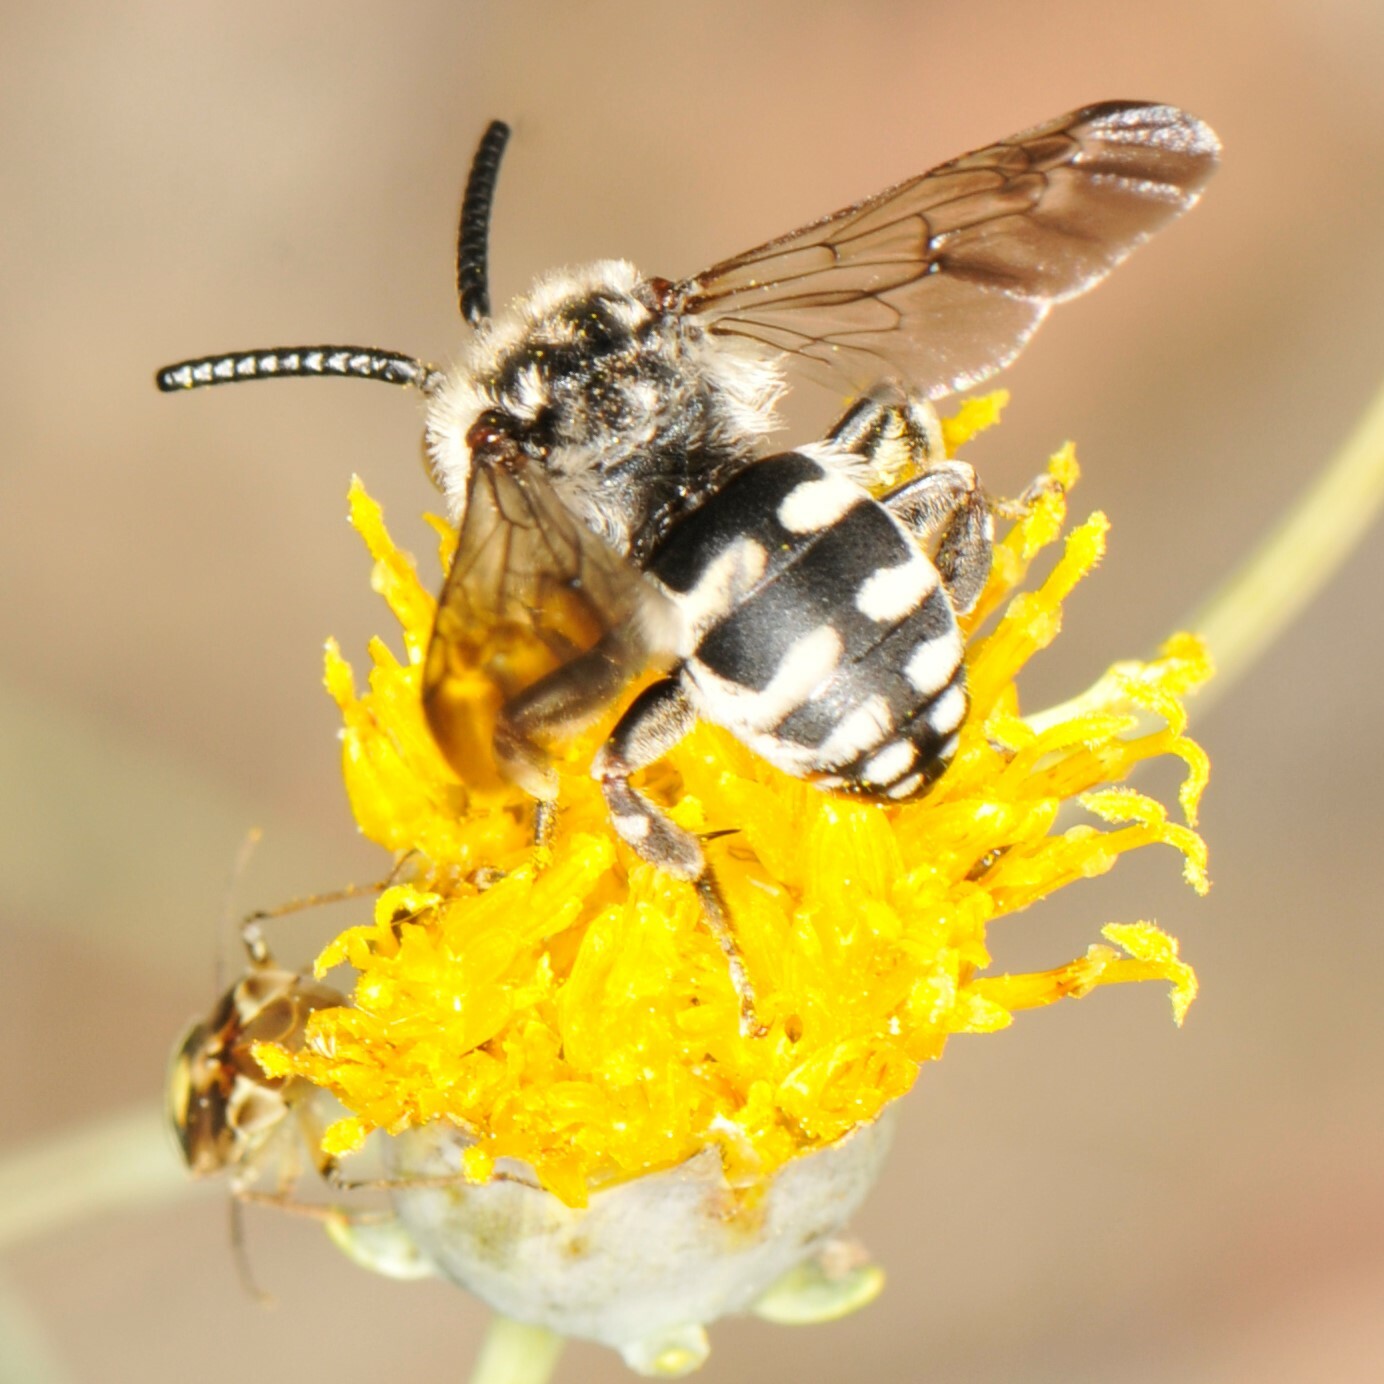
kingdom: Animalia
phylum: Arthropoda
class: Insecta
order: Hymenoptera
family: Apidae
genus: Brachymelecta
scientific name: Brachymelecta californica
